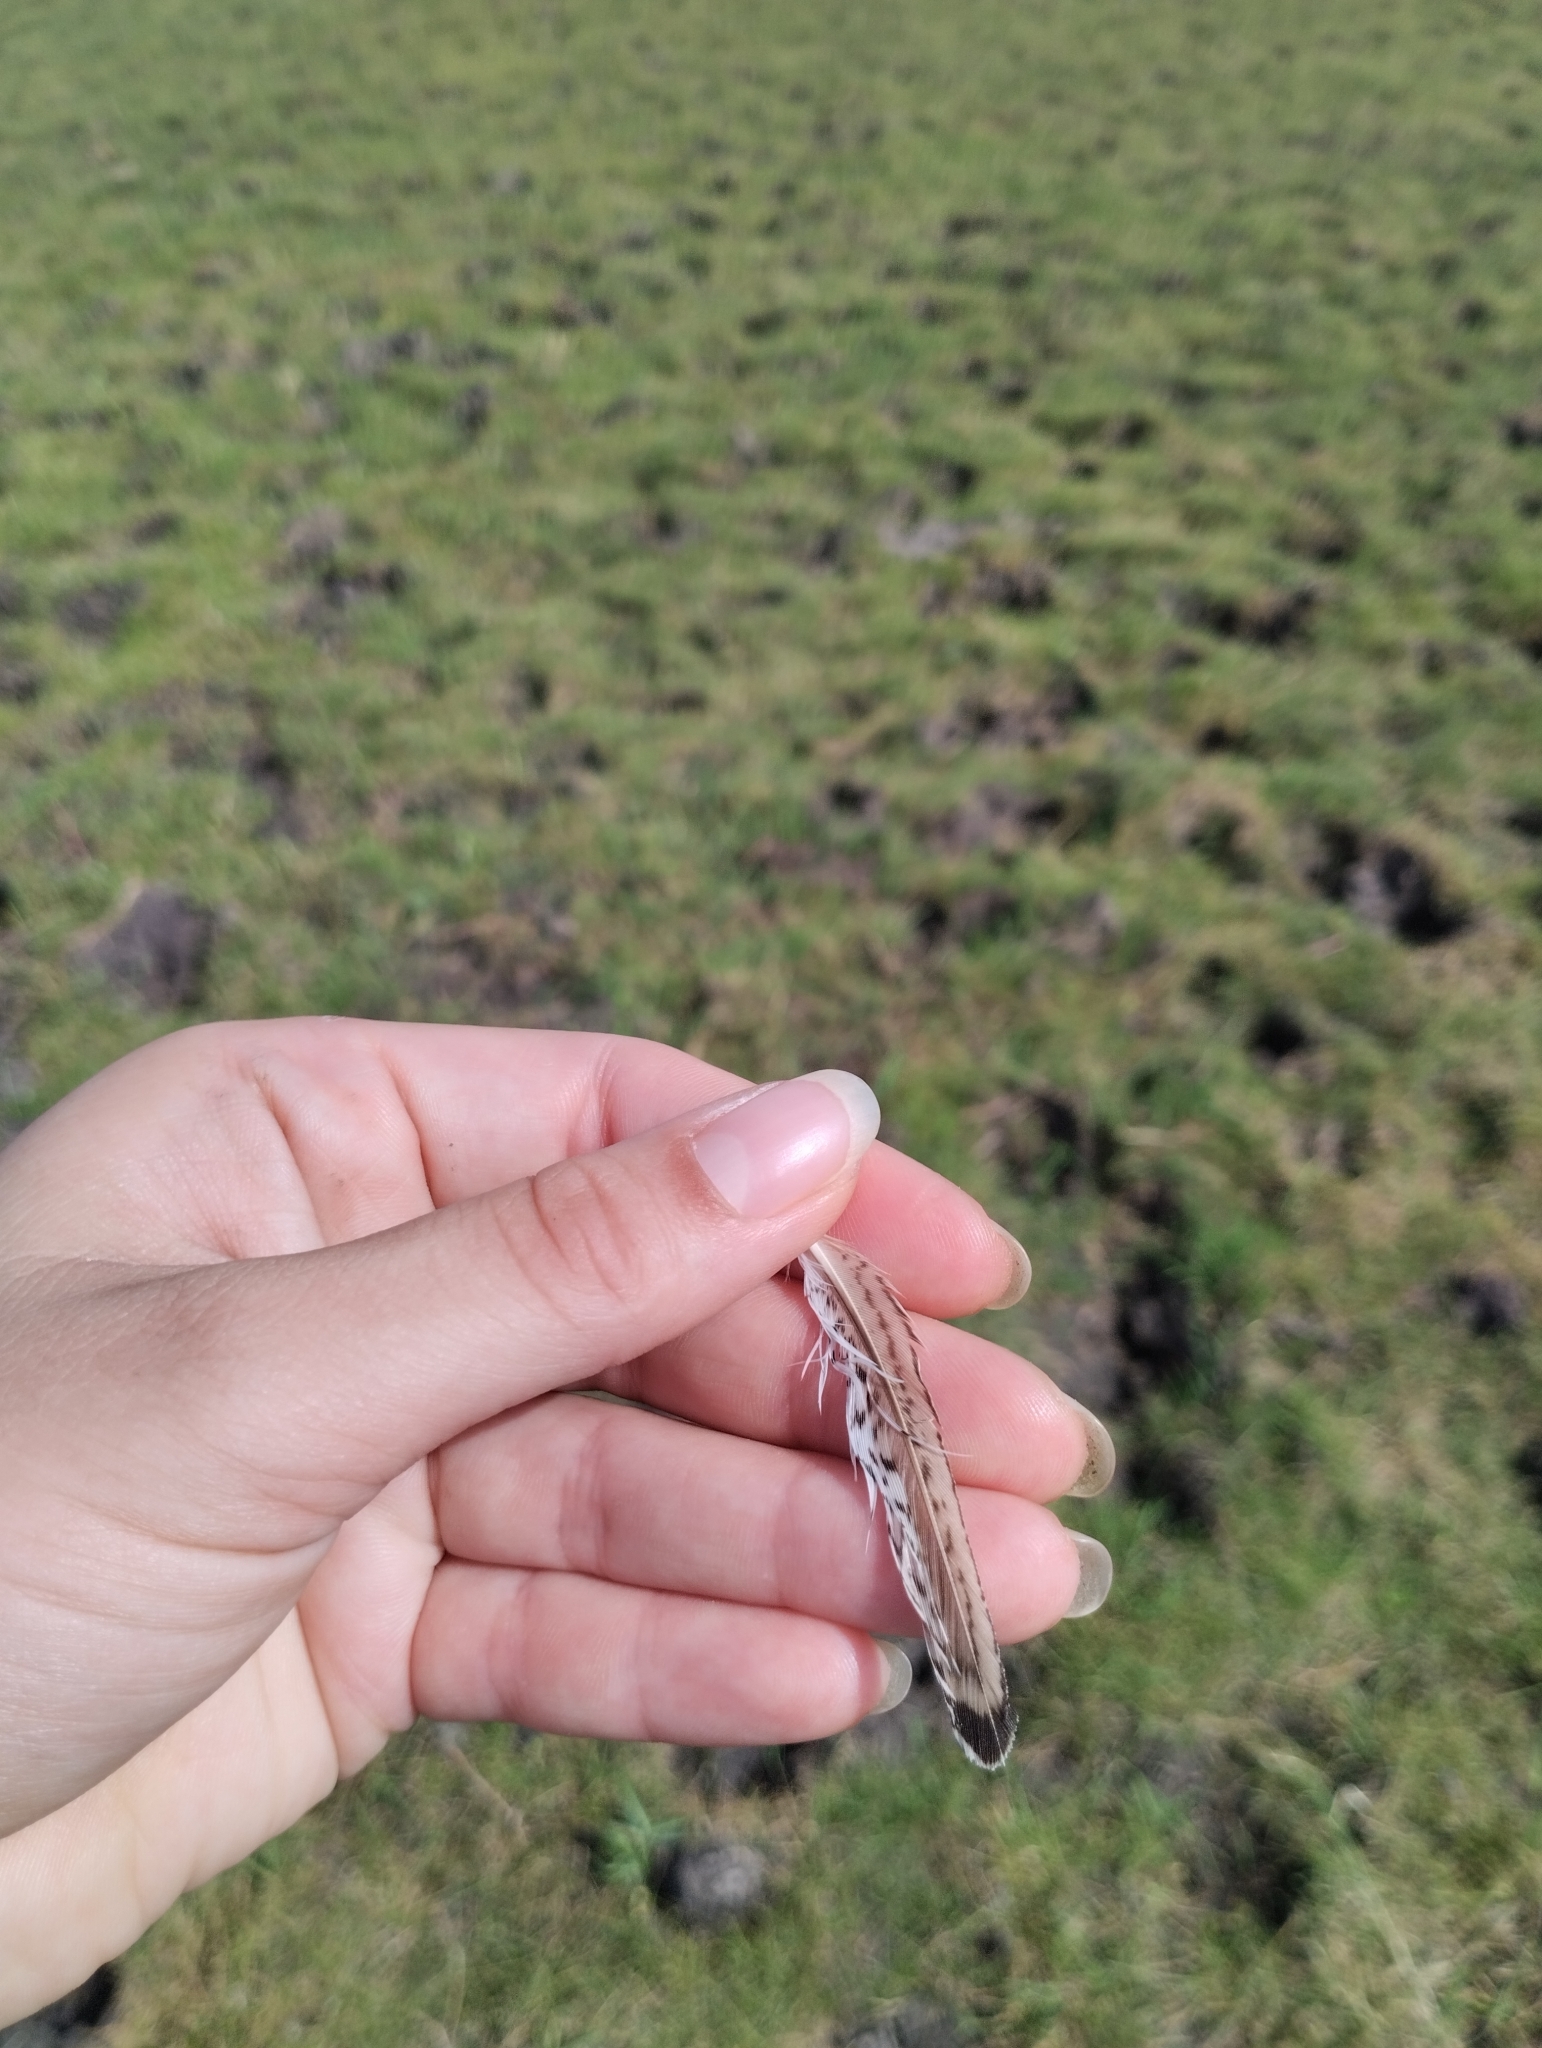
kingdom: Animalia
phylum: Chordata
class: Aves
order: Charadriiformes
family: Scolopacidae
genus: Calidris
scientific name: Calidris subruficollis
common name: Buff-breasted sandpiper
